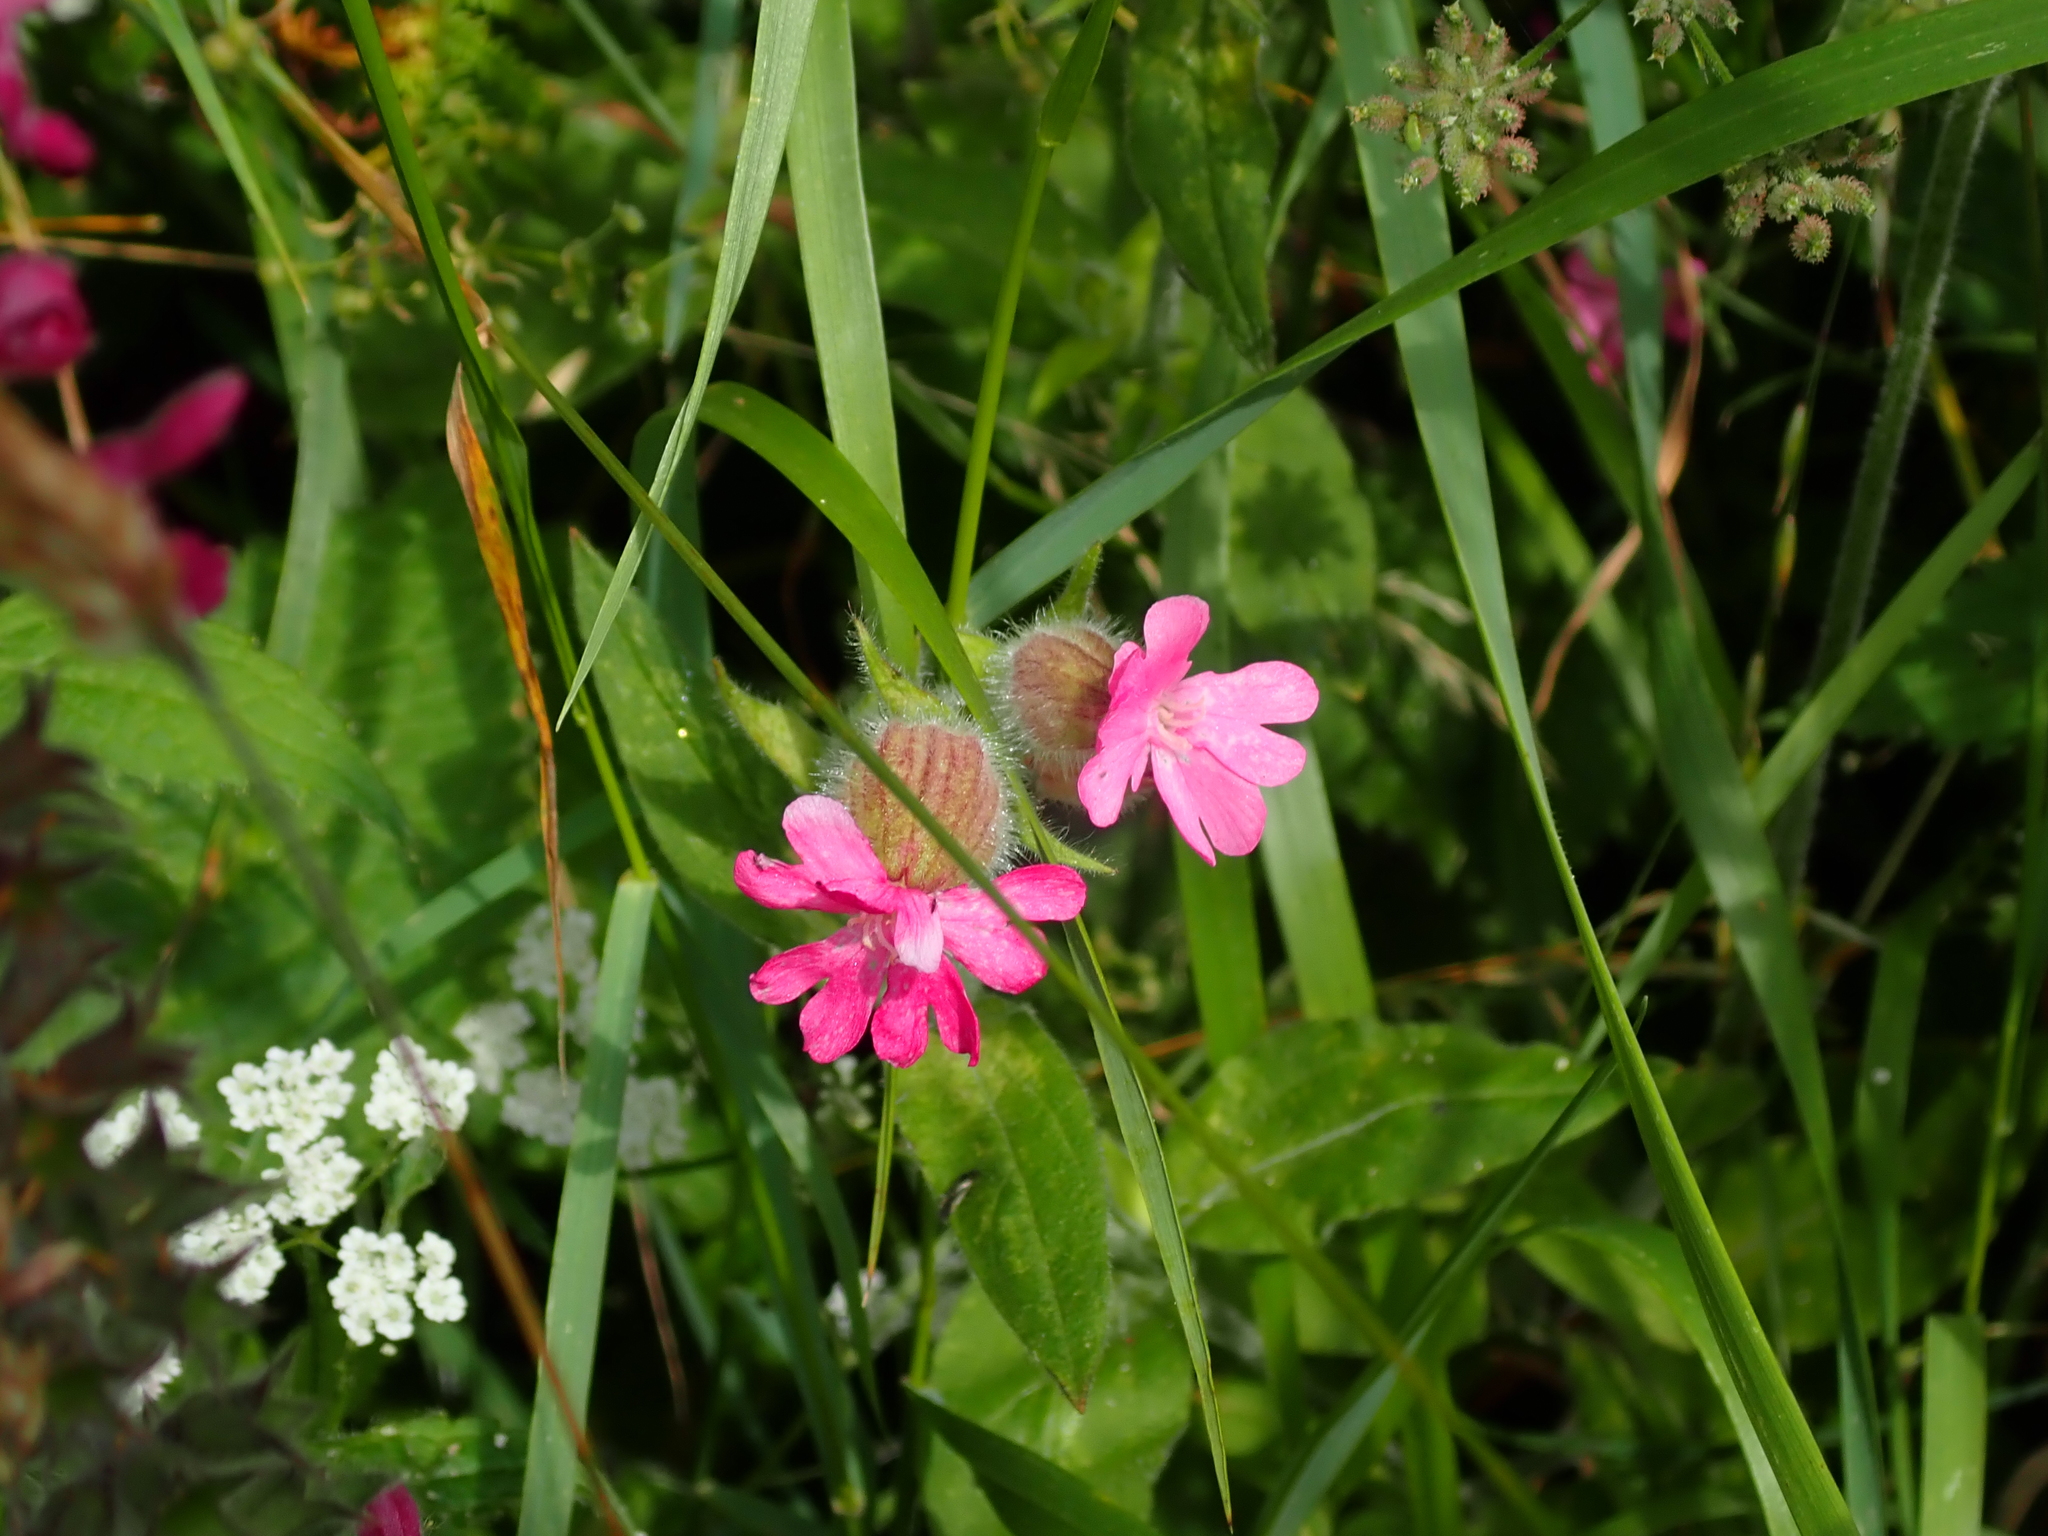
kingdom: Plantae
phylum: Tracheophyta
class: Magnoliopsida
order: Caryophyllales
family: Caryophyllaceae
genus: Silene
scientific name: Silene dioica
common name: Red campion
